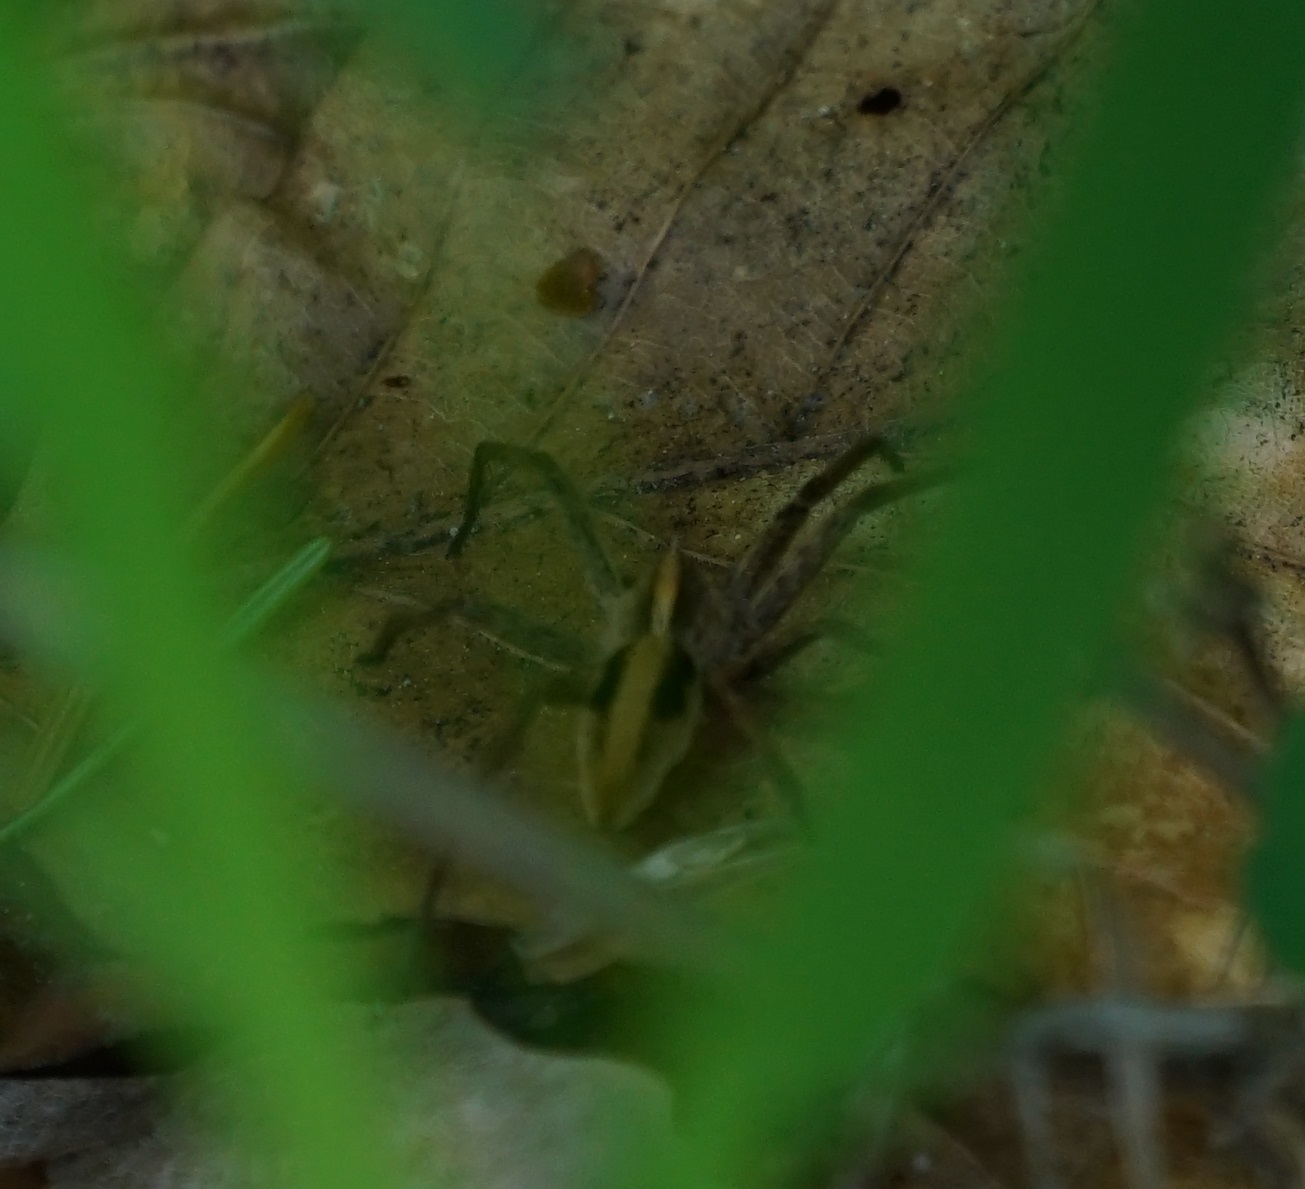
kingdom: Animalia
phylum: Arthropoda
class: Arachnida
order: Araneae
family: Pisauridae
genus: Pisaura
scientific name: Pisaura mirabilis
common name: Tent spider
